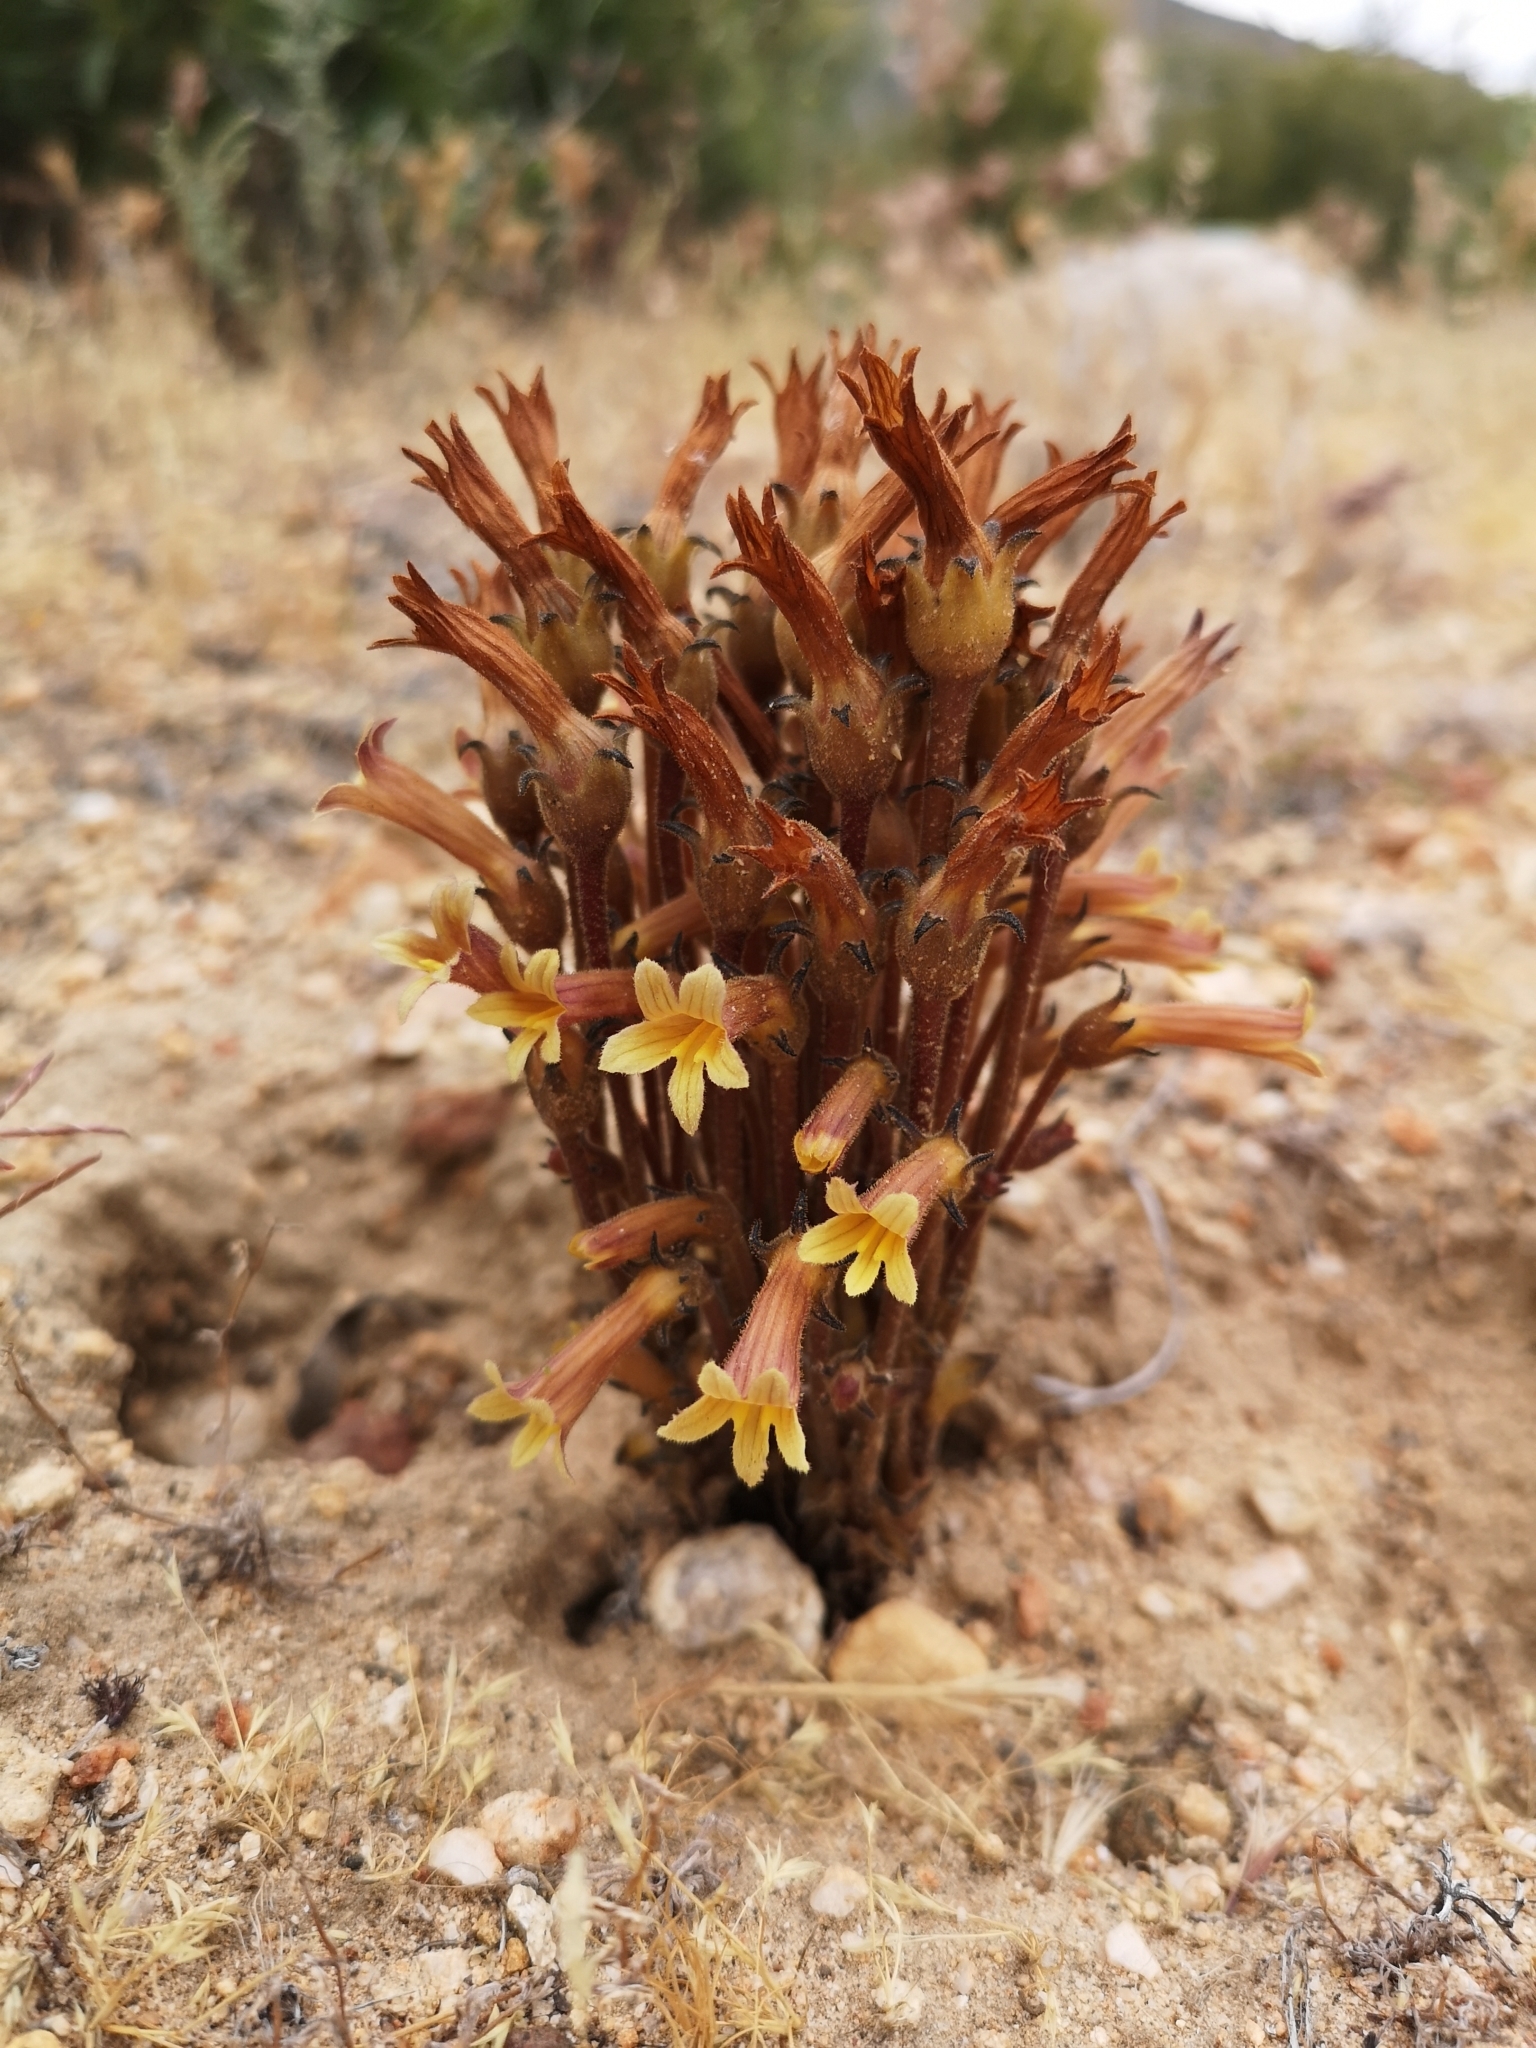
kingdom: Plantae
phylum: Tracheophyta
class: Magnoliopsida
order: Lamiales
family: Orobanchaceae
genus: Aphyllon
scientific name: Aphyllon franciscanum
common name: San francisco broomrape
